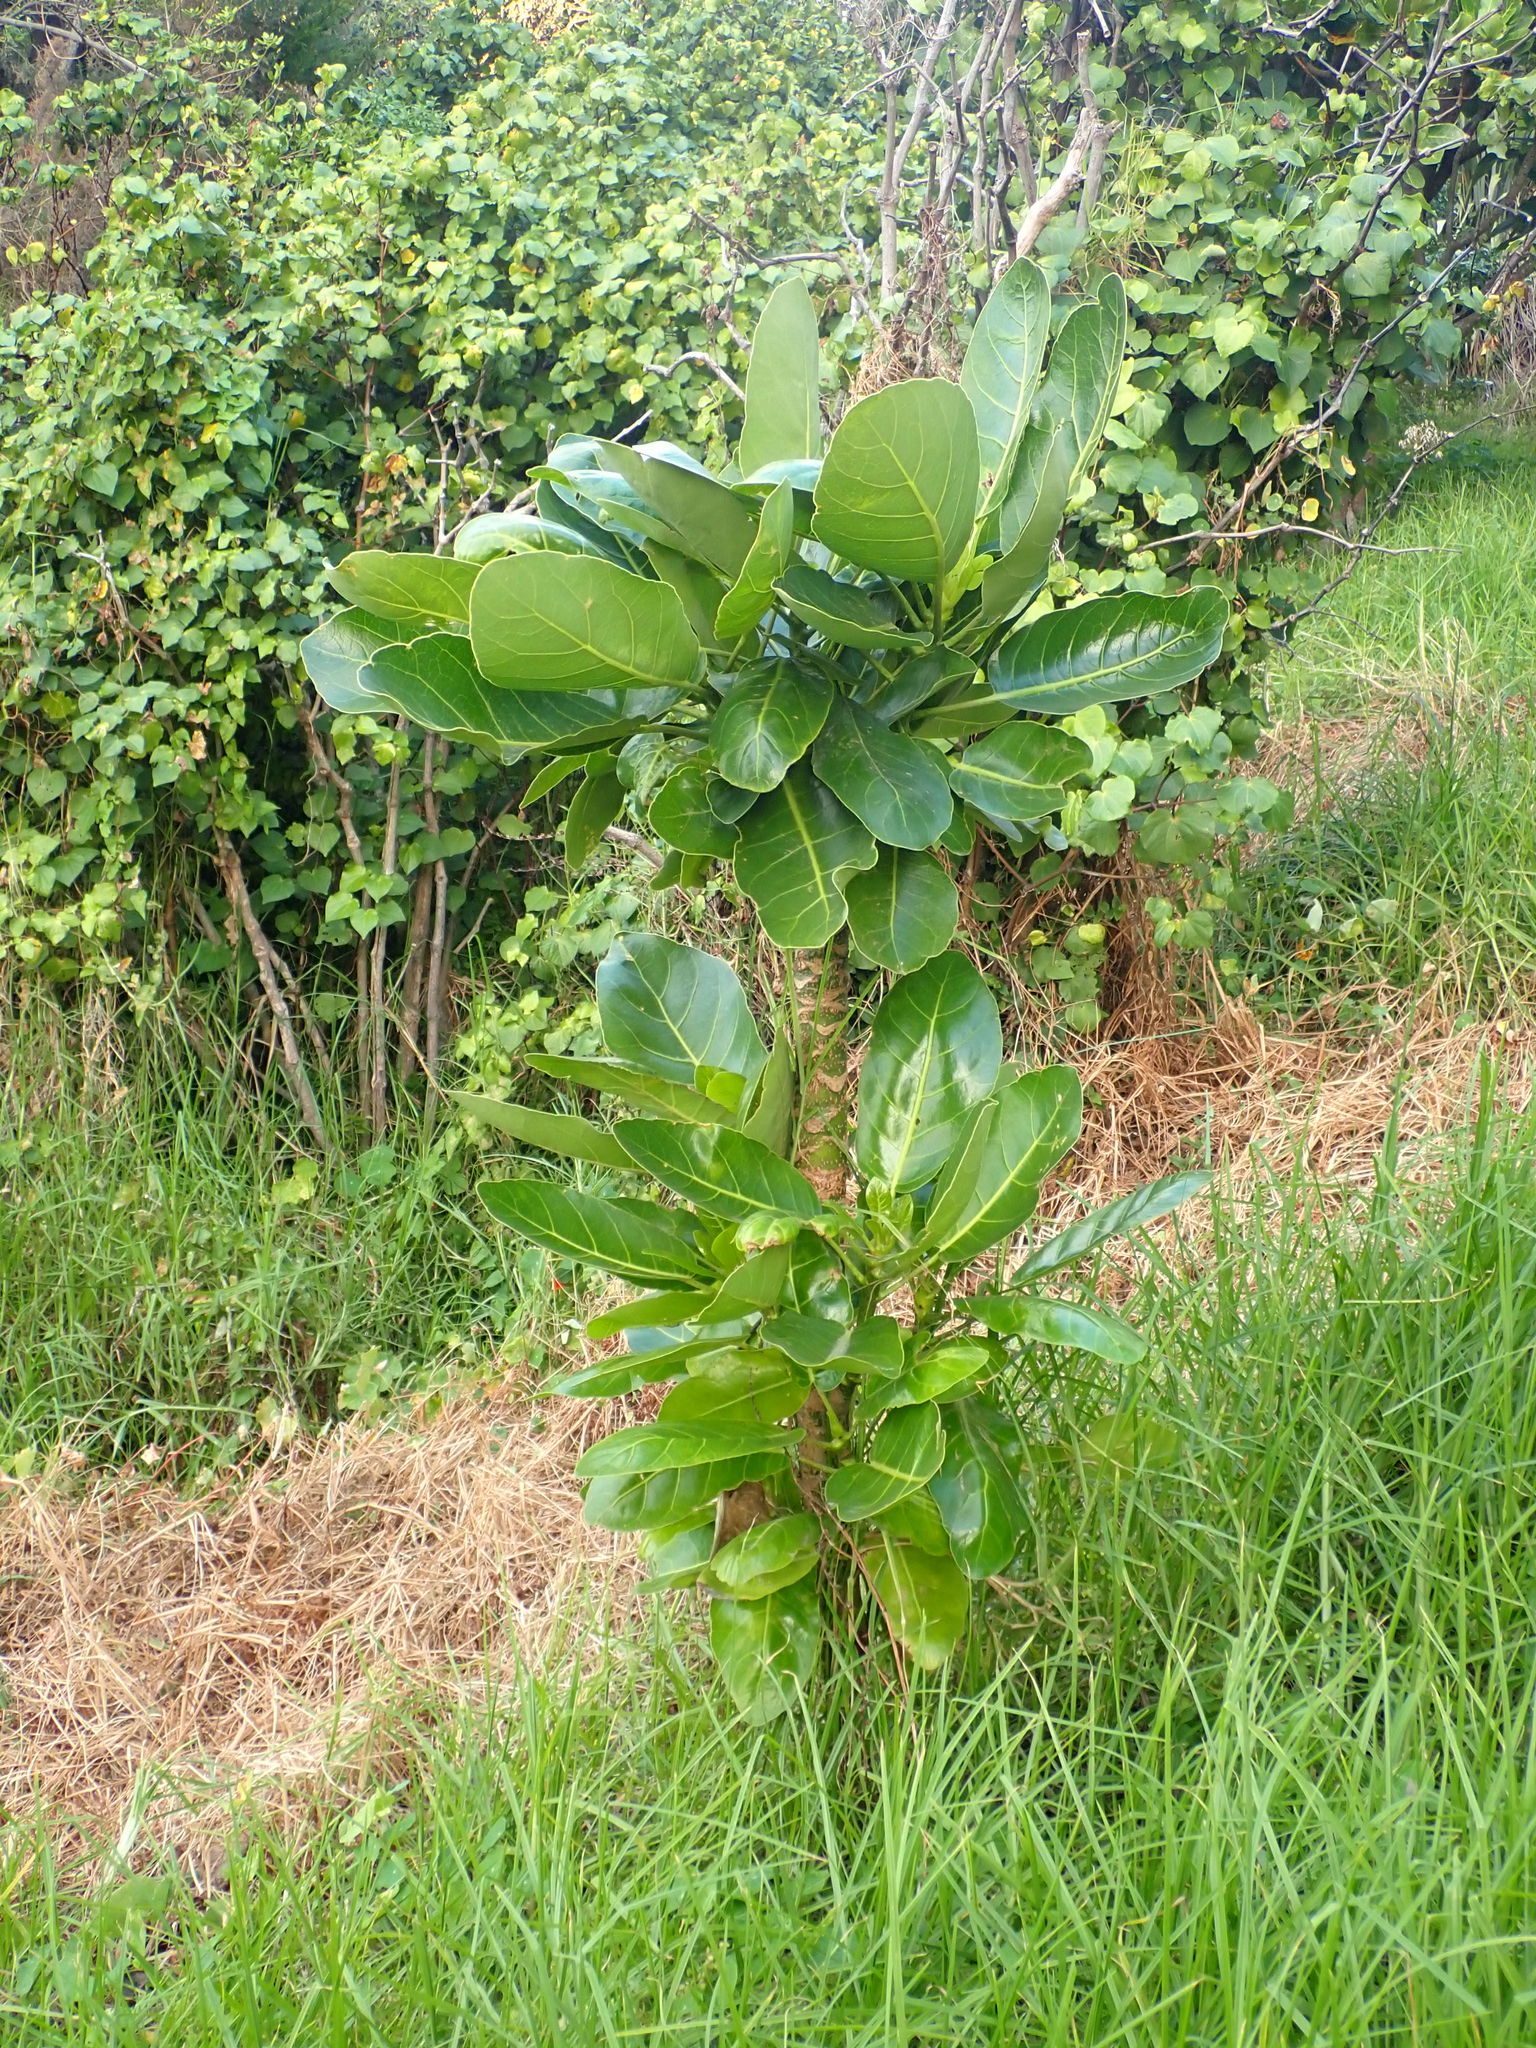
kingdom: Plantae
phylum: Tracheophyta
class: Magnoliopsida
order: Apiales
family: Araliaceae
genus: Meryta
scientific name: Meryta sinclairii
